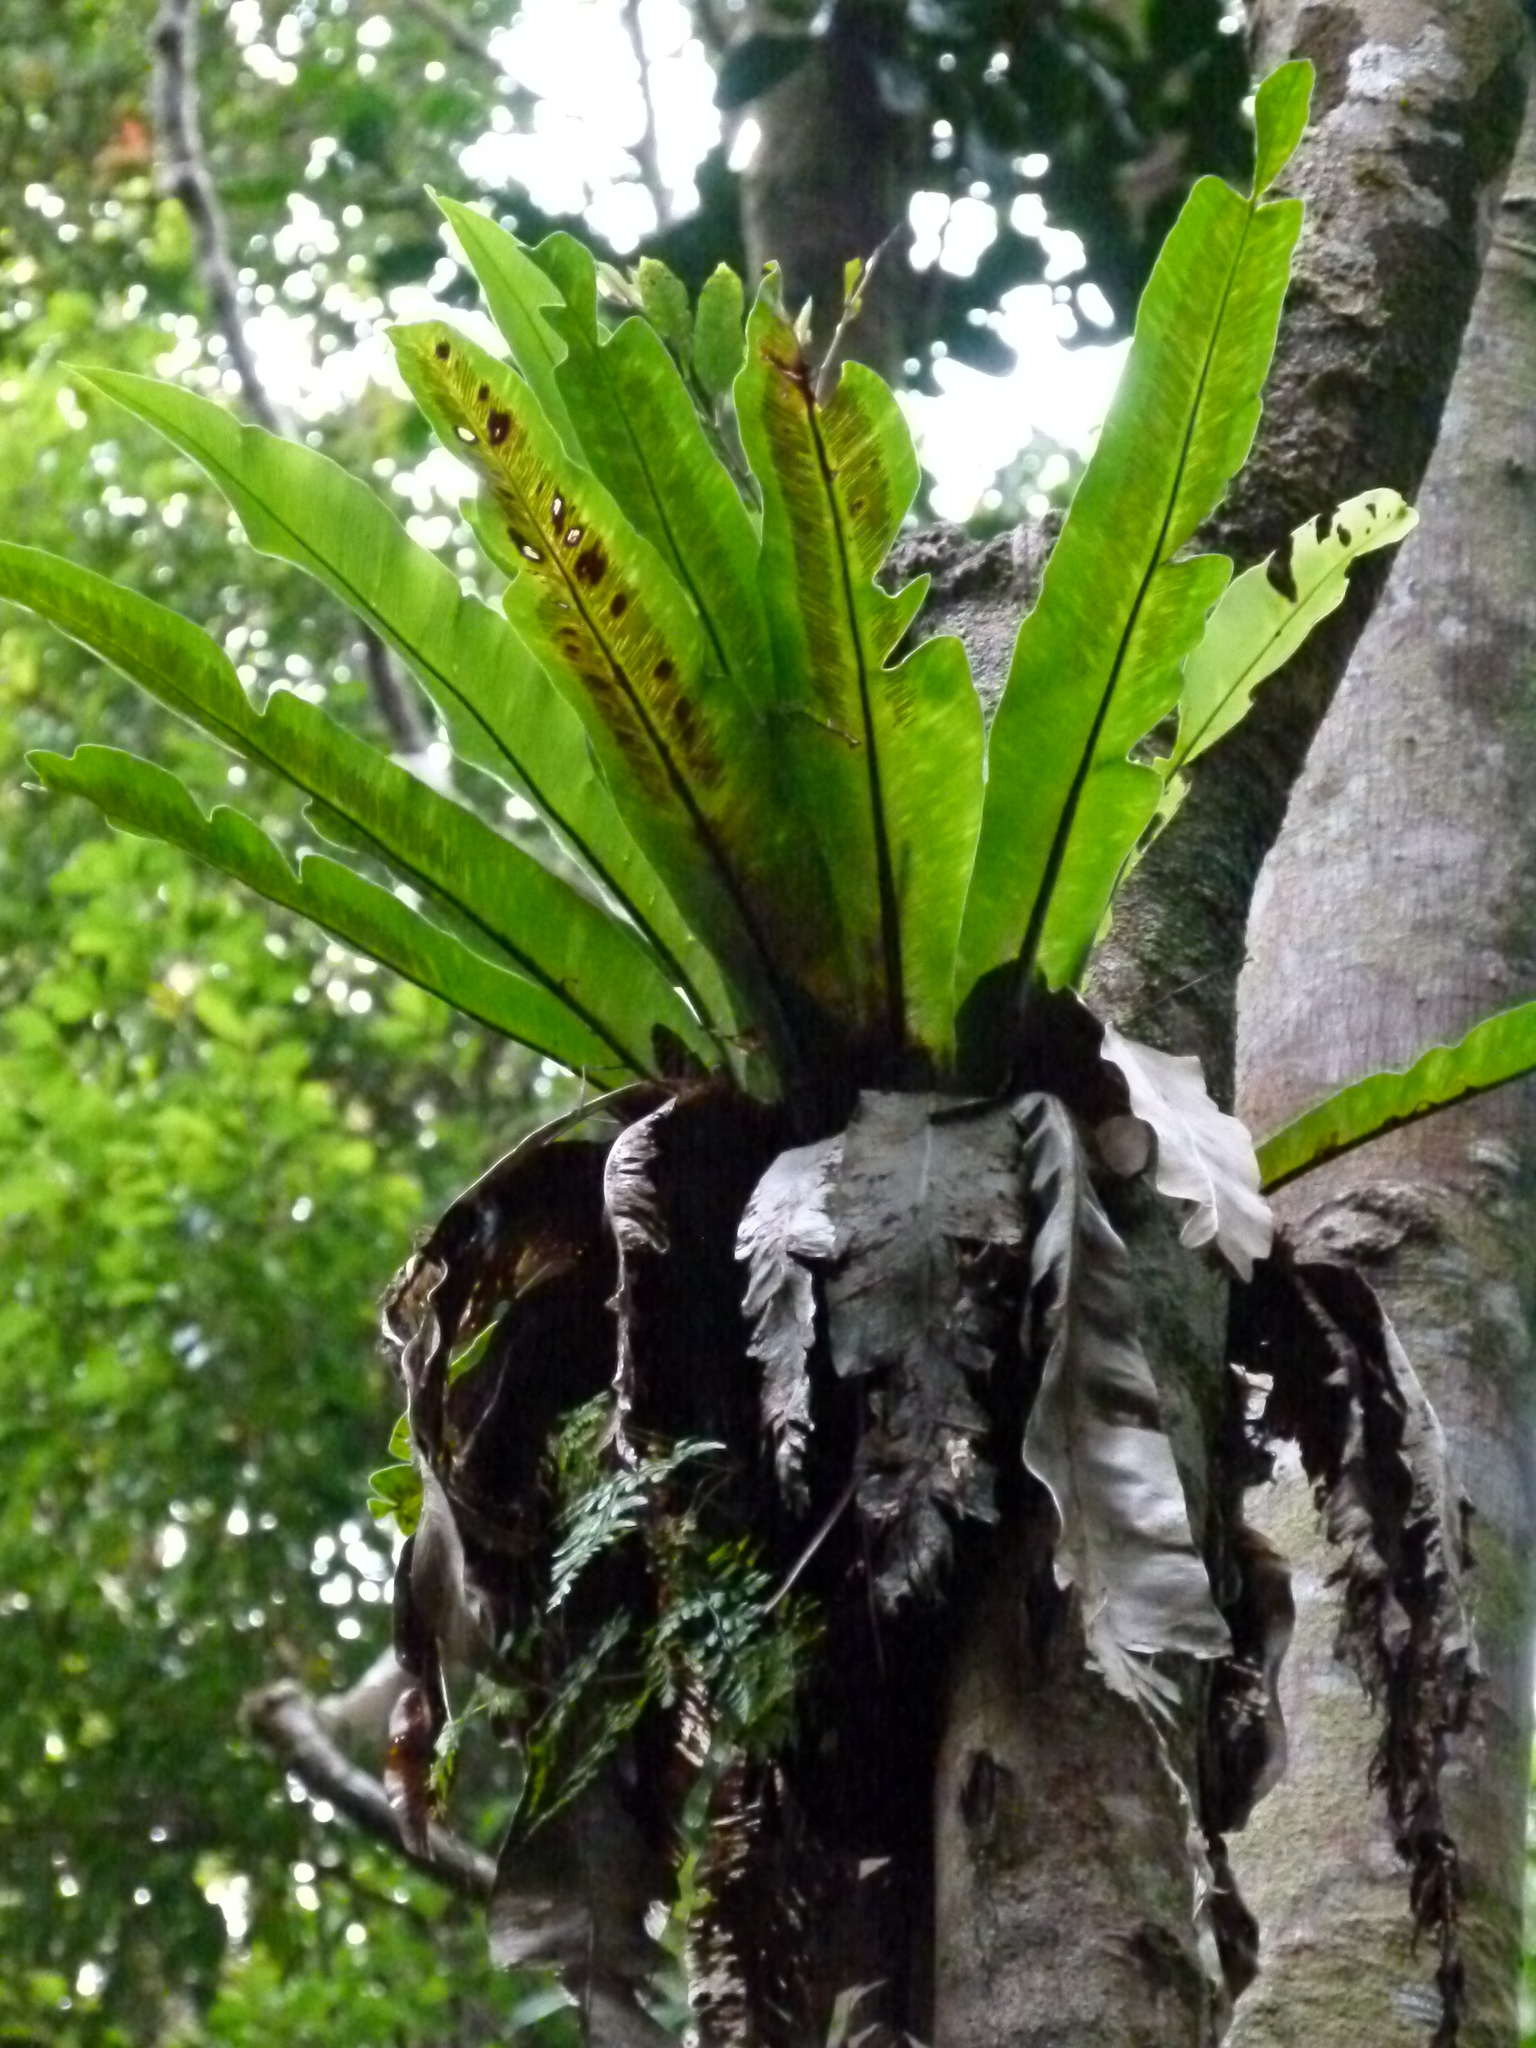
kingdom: Plantae
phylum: Tracheophyta
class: Polypodiopsida
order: Polypodiales
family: Aspleniaceae
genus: Asplenium
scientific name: Asplenium australasicum
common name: Bird's-nest fern
